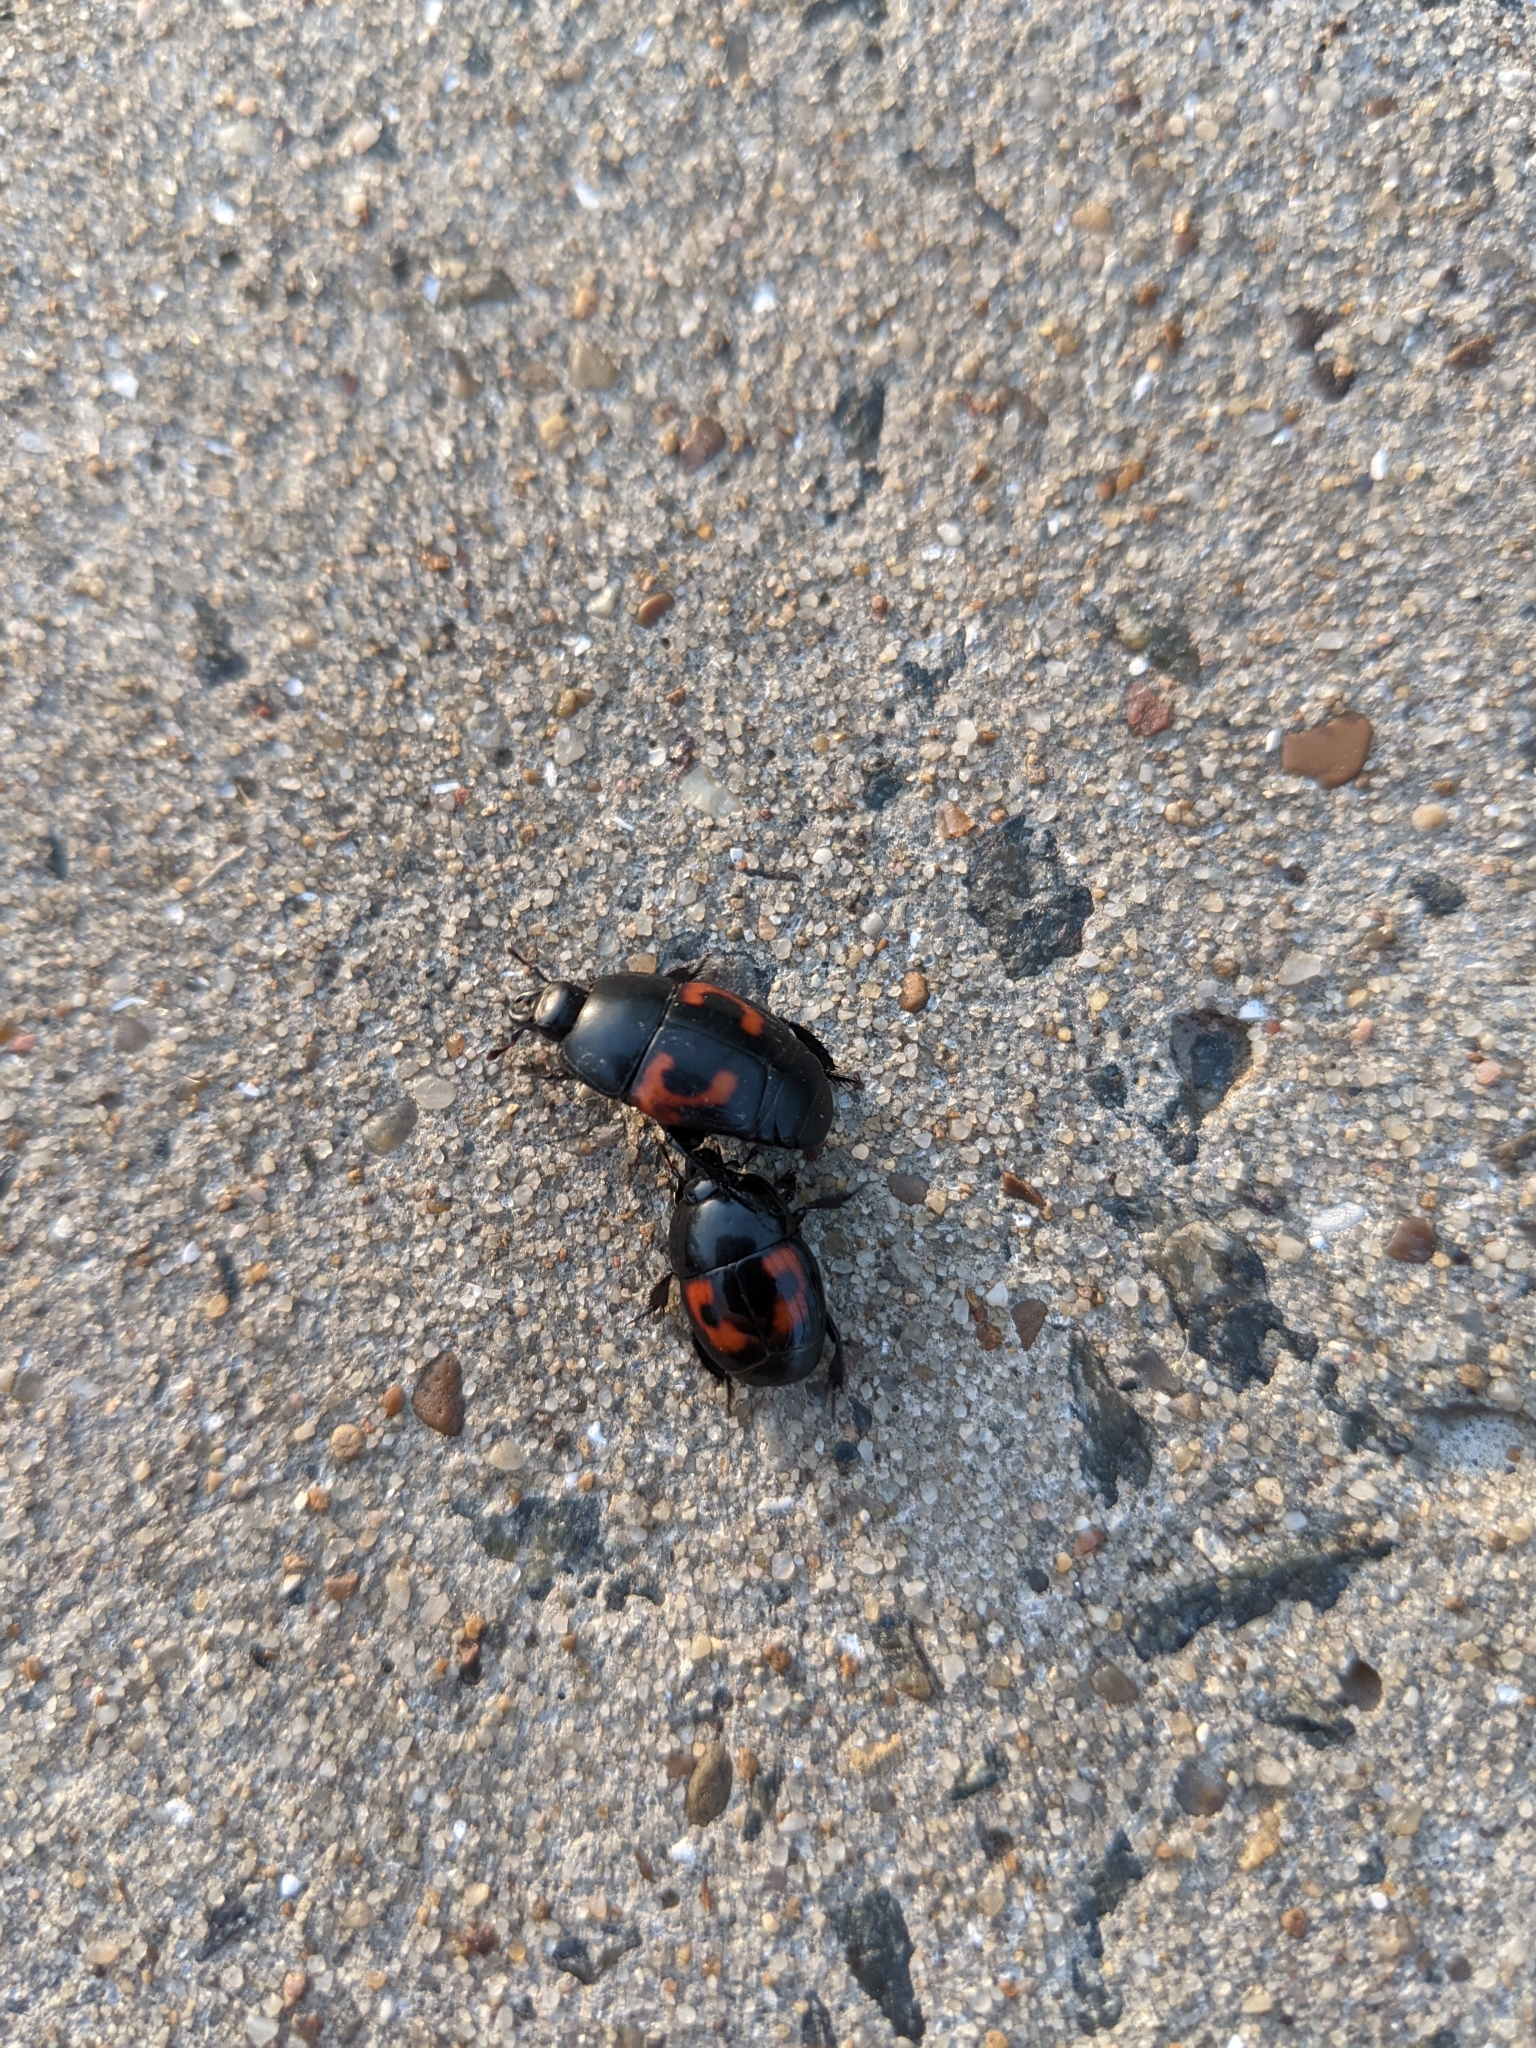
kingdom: Animalia
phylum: Arthropoda
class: Insecta
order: Coleoptera
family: Histeridae
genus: Hister
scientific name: Hister quadrimaculatus
